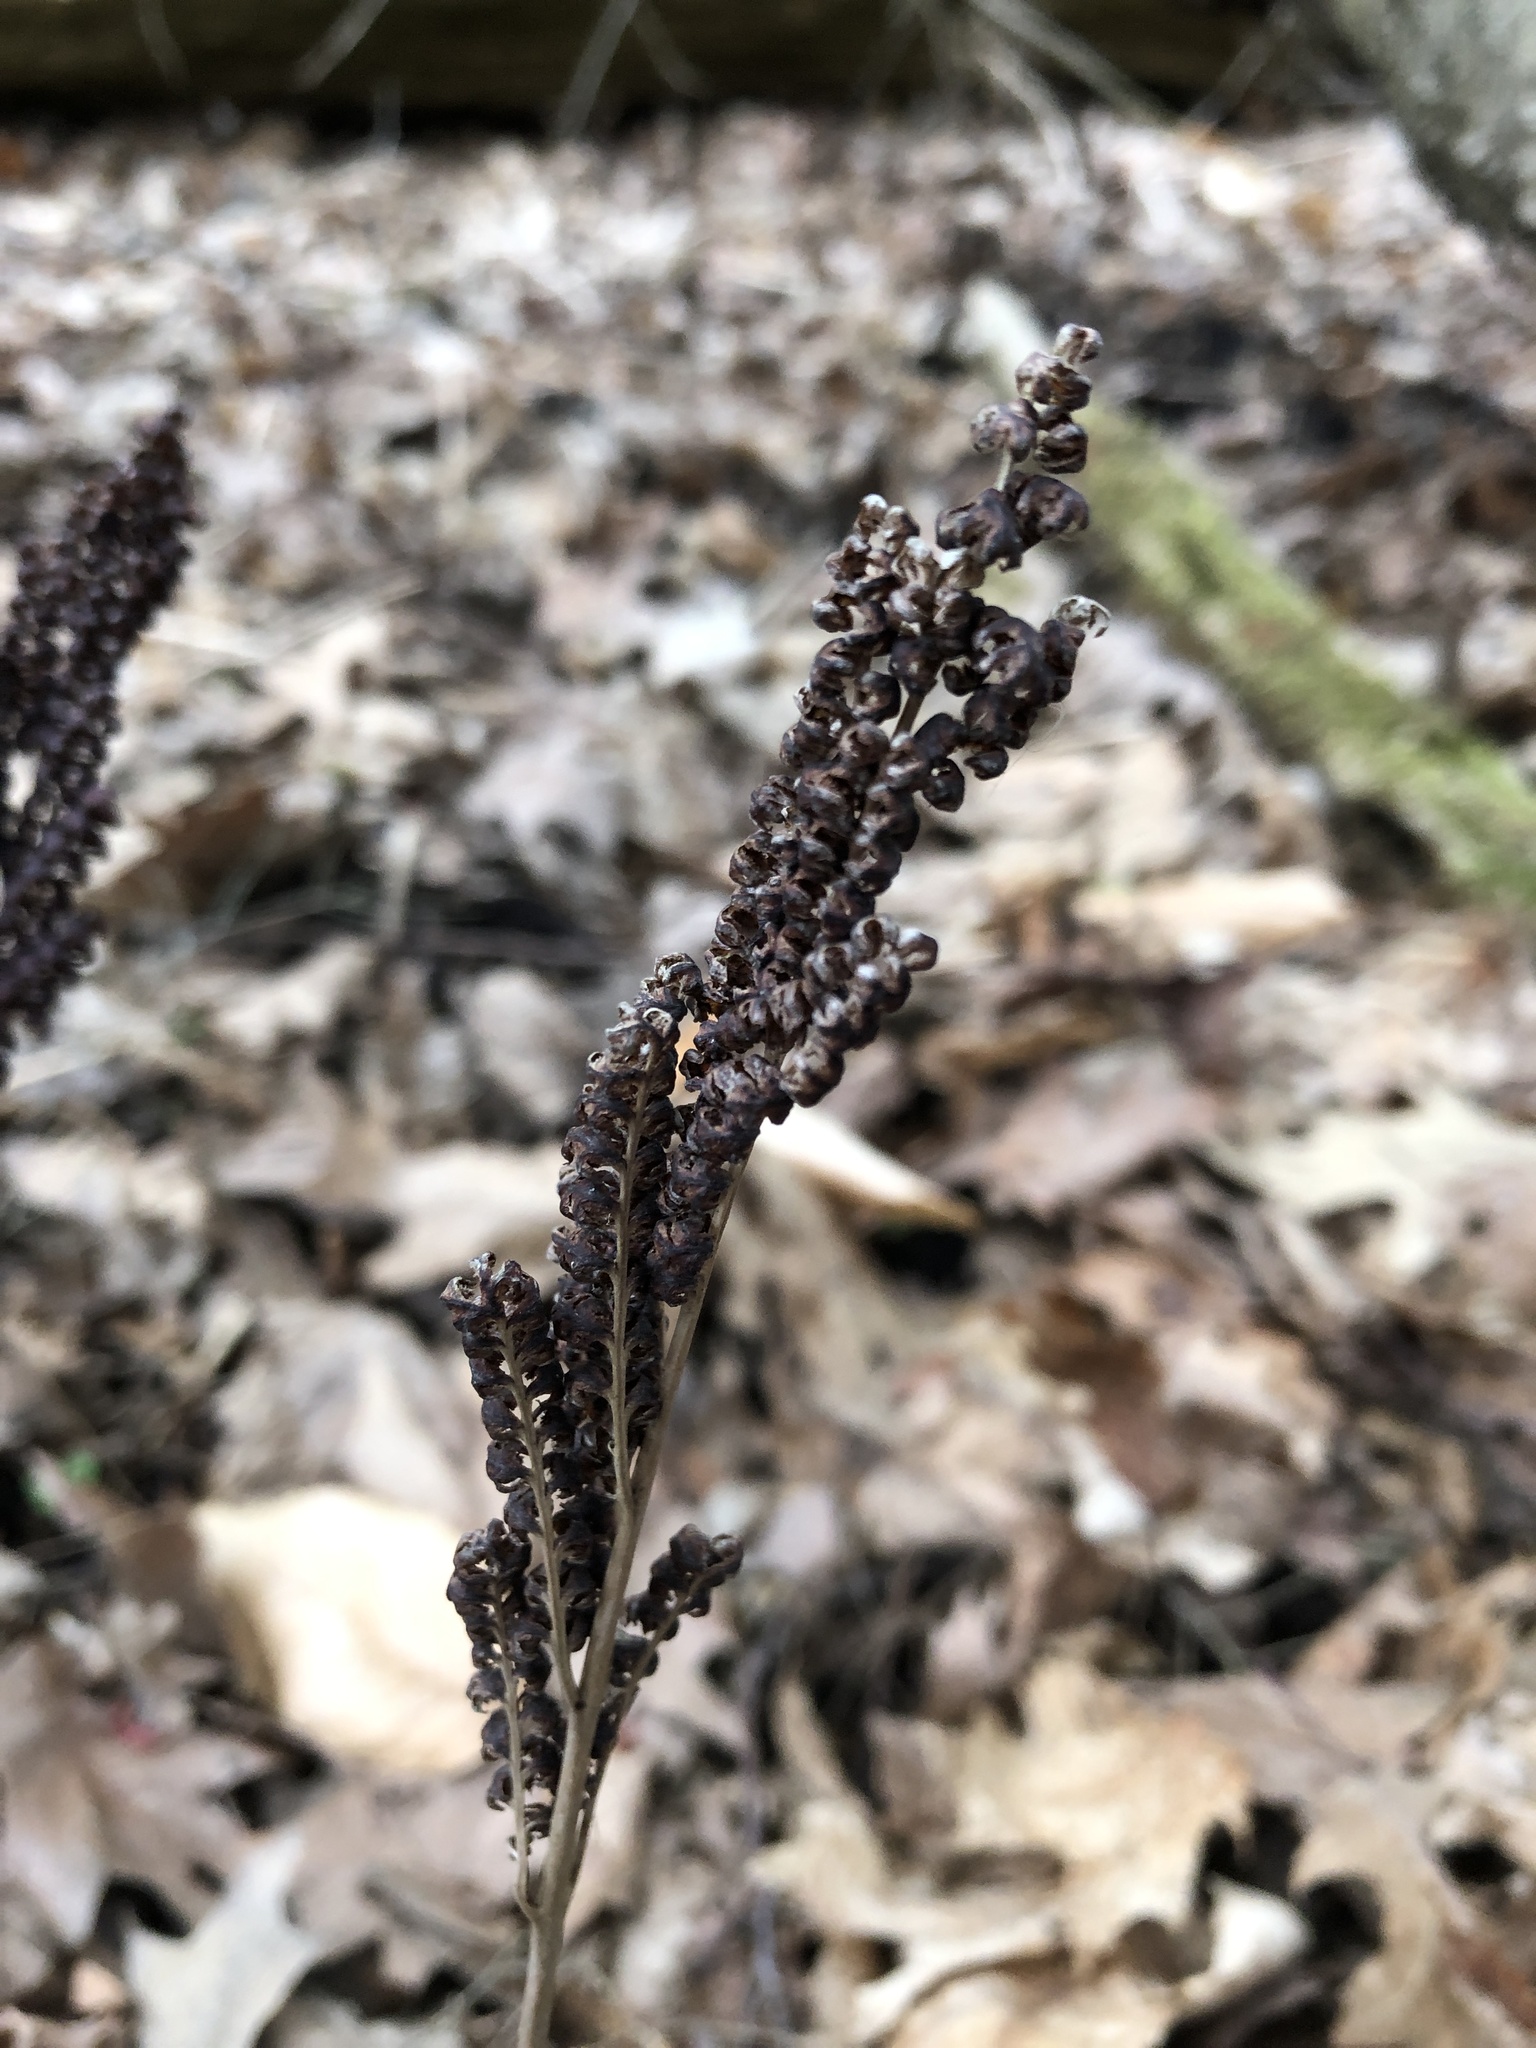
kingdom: Plantae
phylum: Tracheophyta
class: Polypodiopsida
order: Polypodiales
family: Onocleaceae
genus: Onoclea
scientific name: Onoclea sensibilis
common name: Sensitive fern
